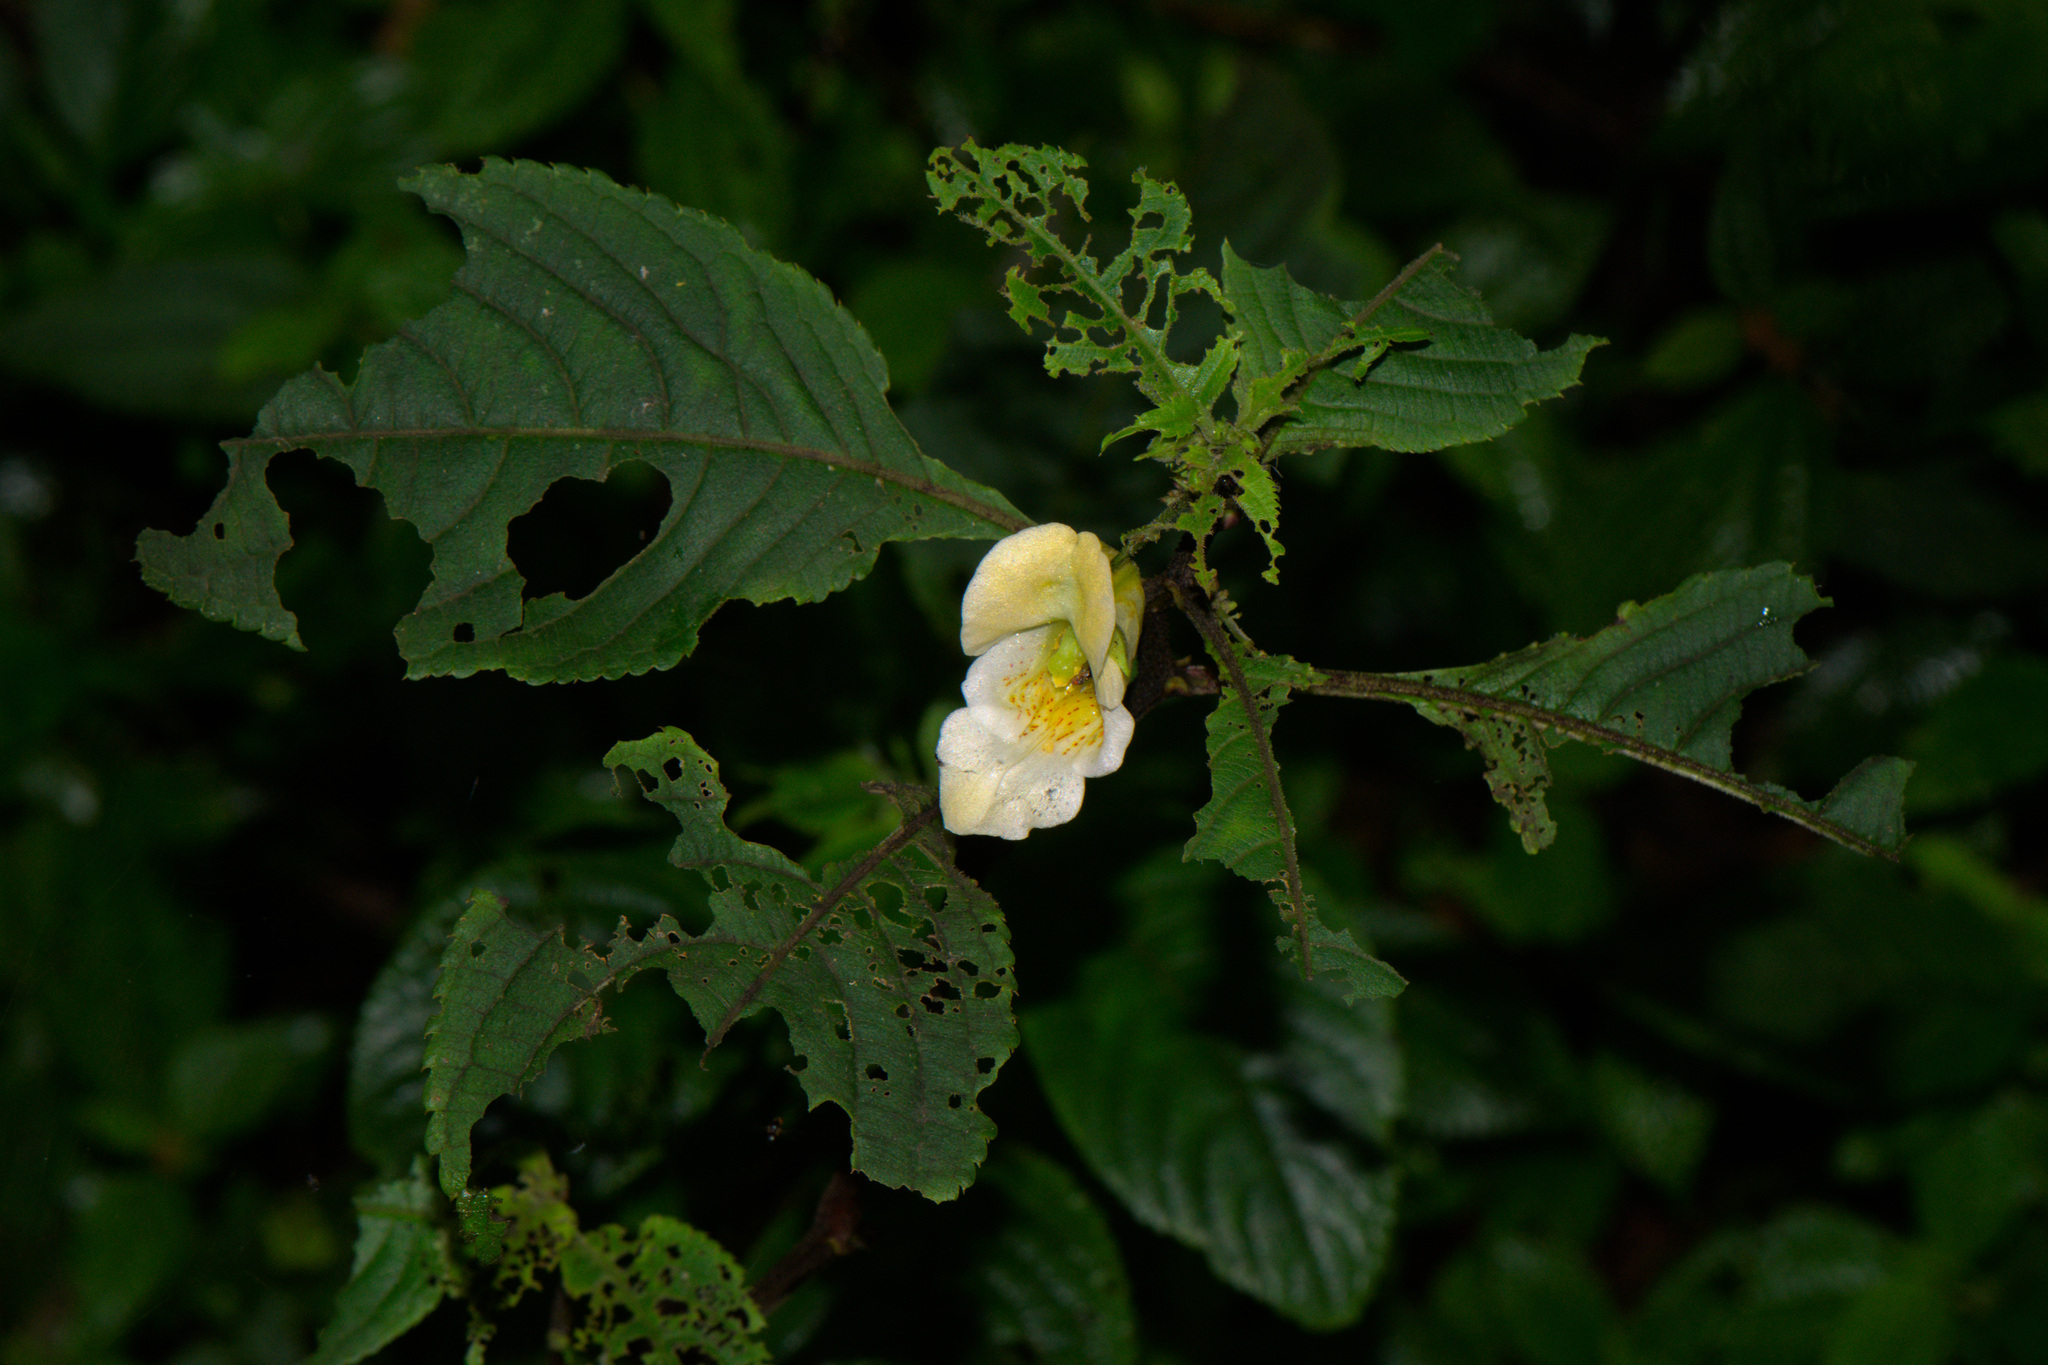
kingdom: Plantae
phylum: Tracheophyta
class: Magnoliopsida
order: Ericales
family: Balsaminaceae
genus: Impatiens
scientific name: Impatiens tricornis
